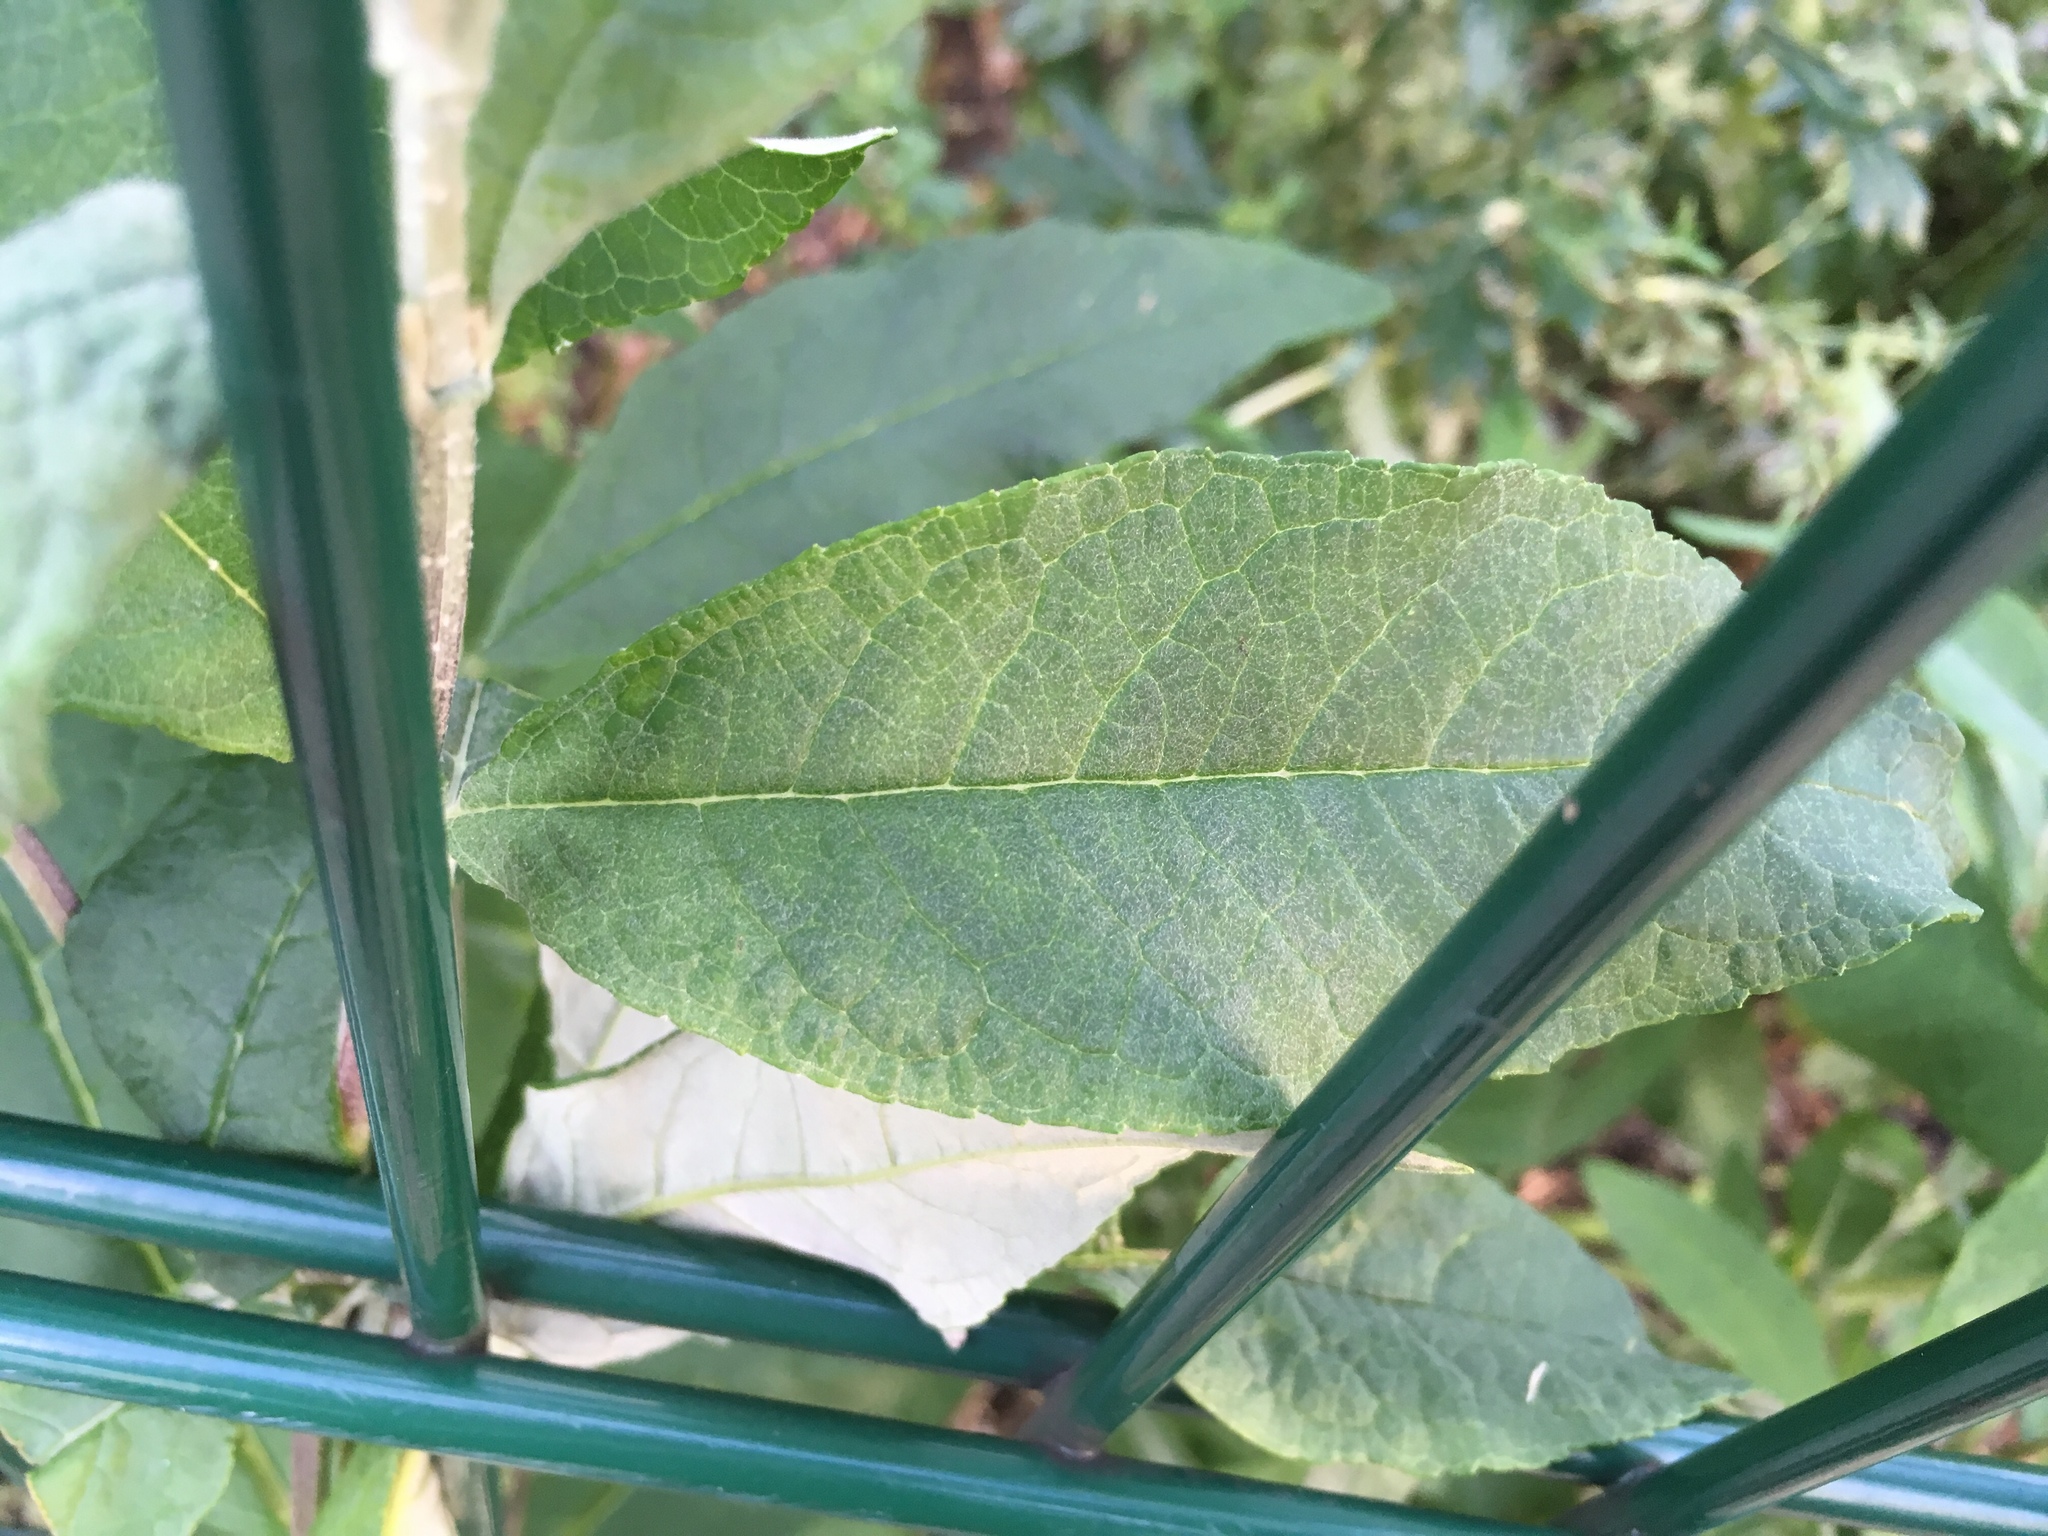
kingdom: Plantae
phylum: Tracheophyta
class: Magnoliopsida
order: Lamiales
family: Scrophulariaceae
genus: Buddleja
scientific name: Buddleja davidii
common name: Butterfly-bush
